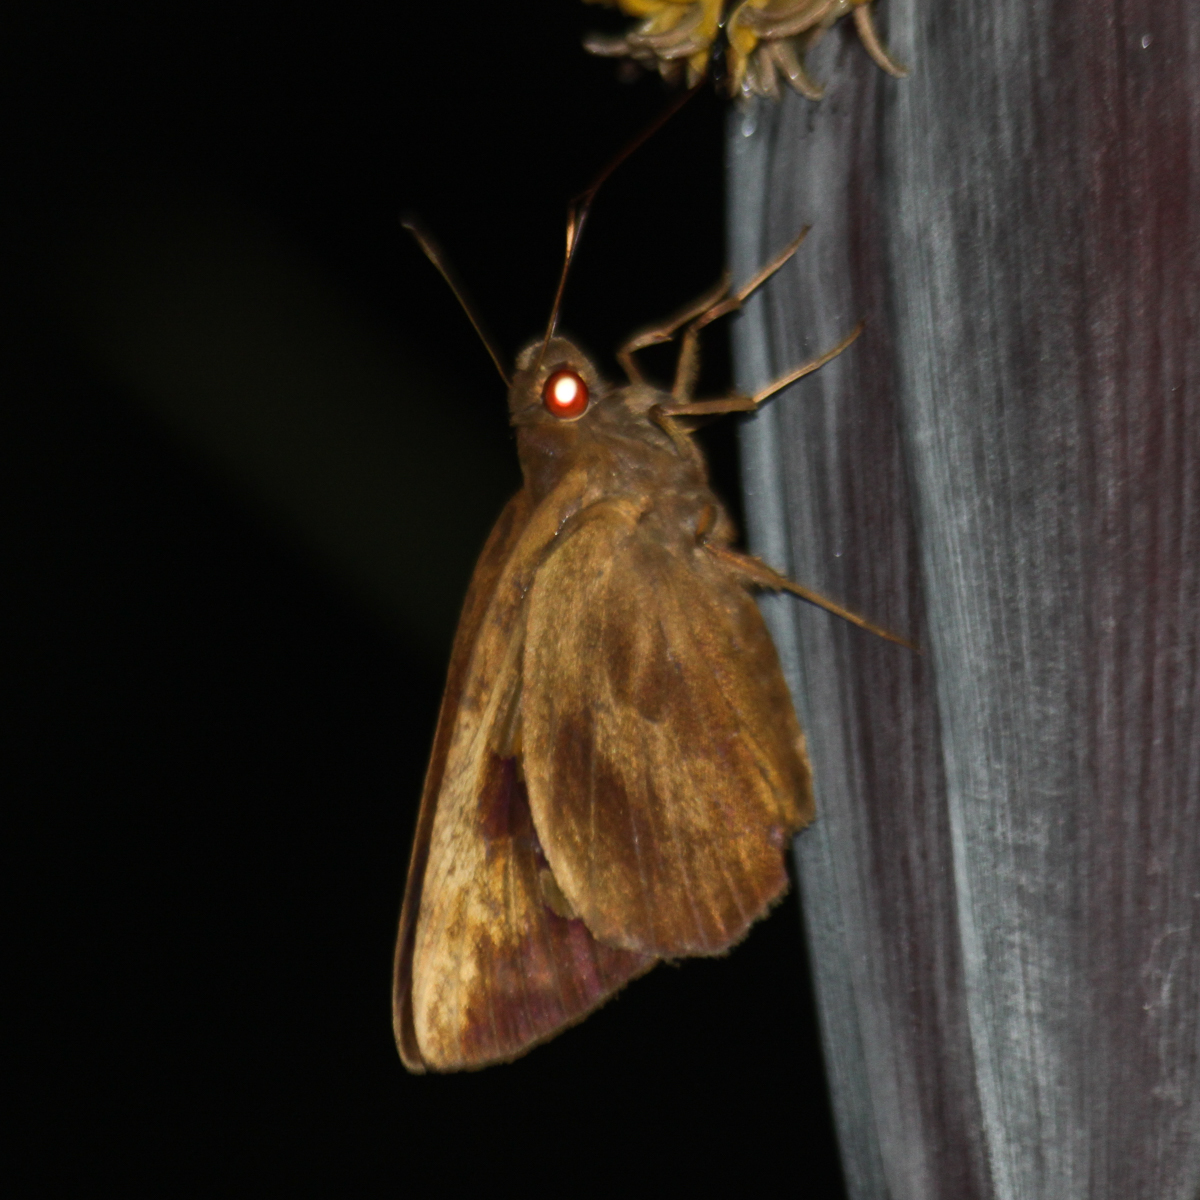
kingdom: Animalia
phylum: Arthropoda
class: Insecta
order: Lepidoptera
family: Hesperiidae
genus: Erionota
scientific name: Erionota thrax
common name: Banana skipper
